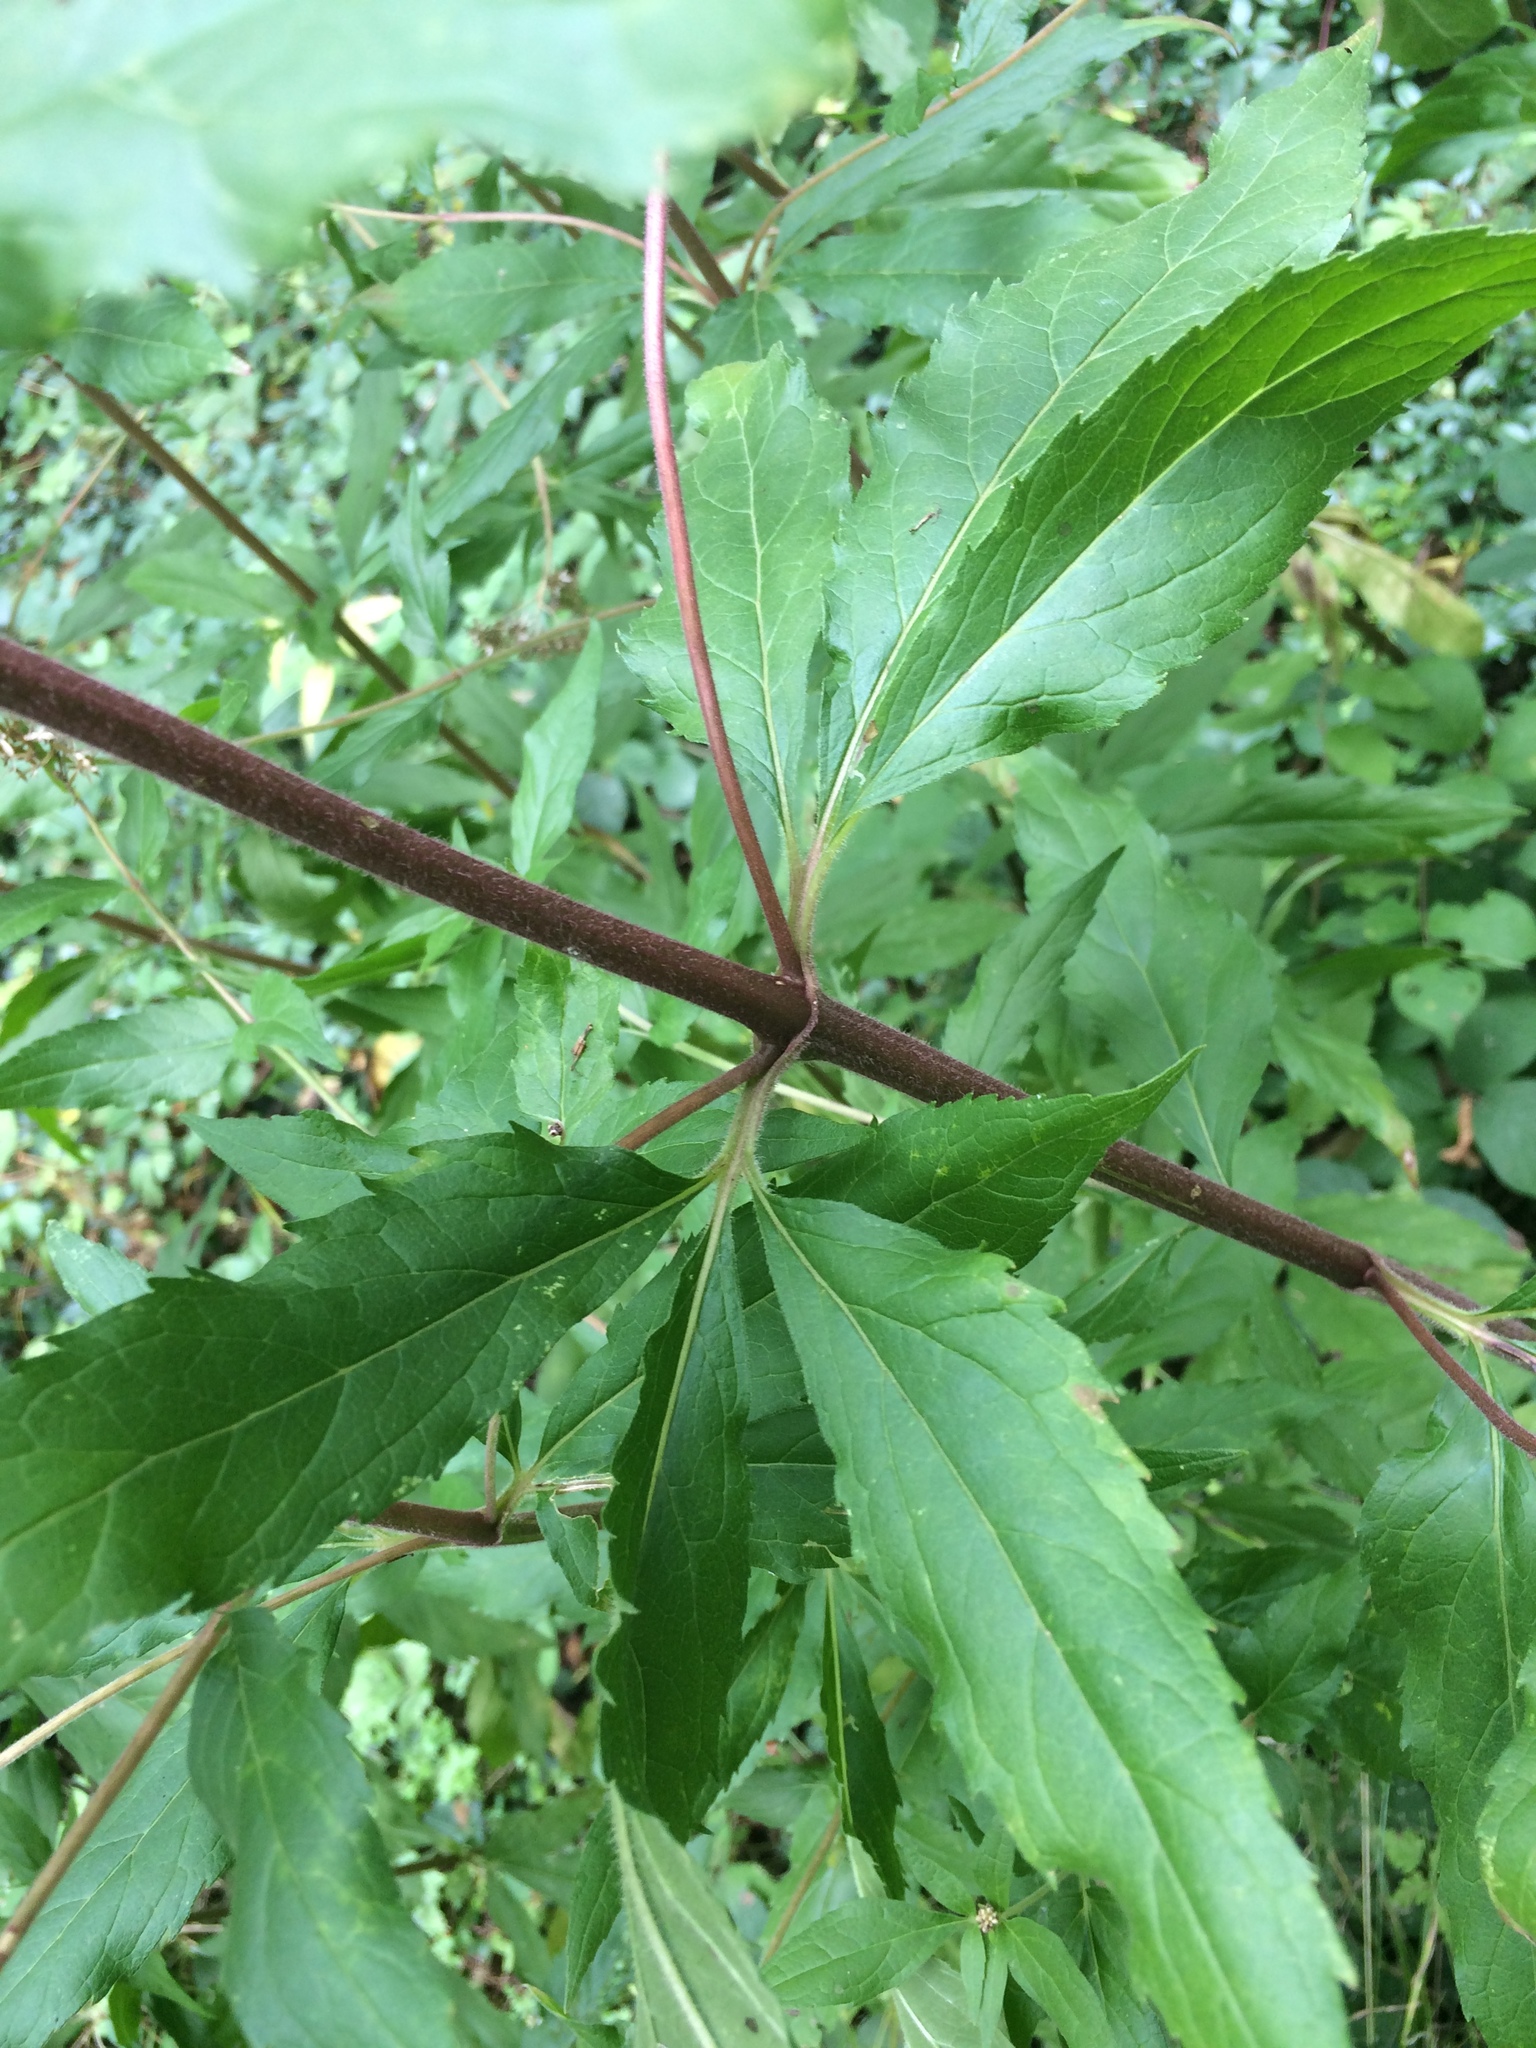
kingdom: Plantae
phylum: Tracheophyta
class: Magnoliopsida
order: Asterales
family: Asteraceae
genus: Eupatorium
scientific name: Eupatorium cannabinum
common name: Hemp-agrimony
